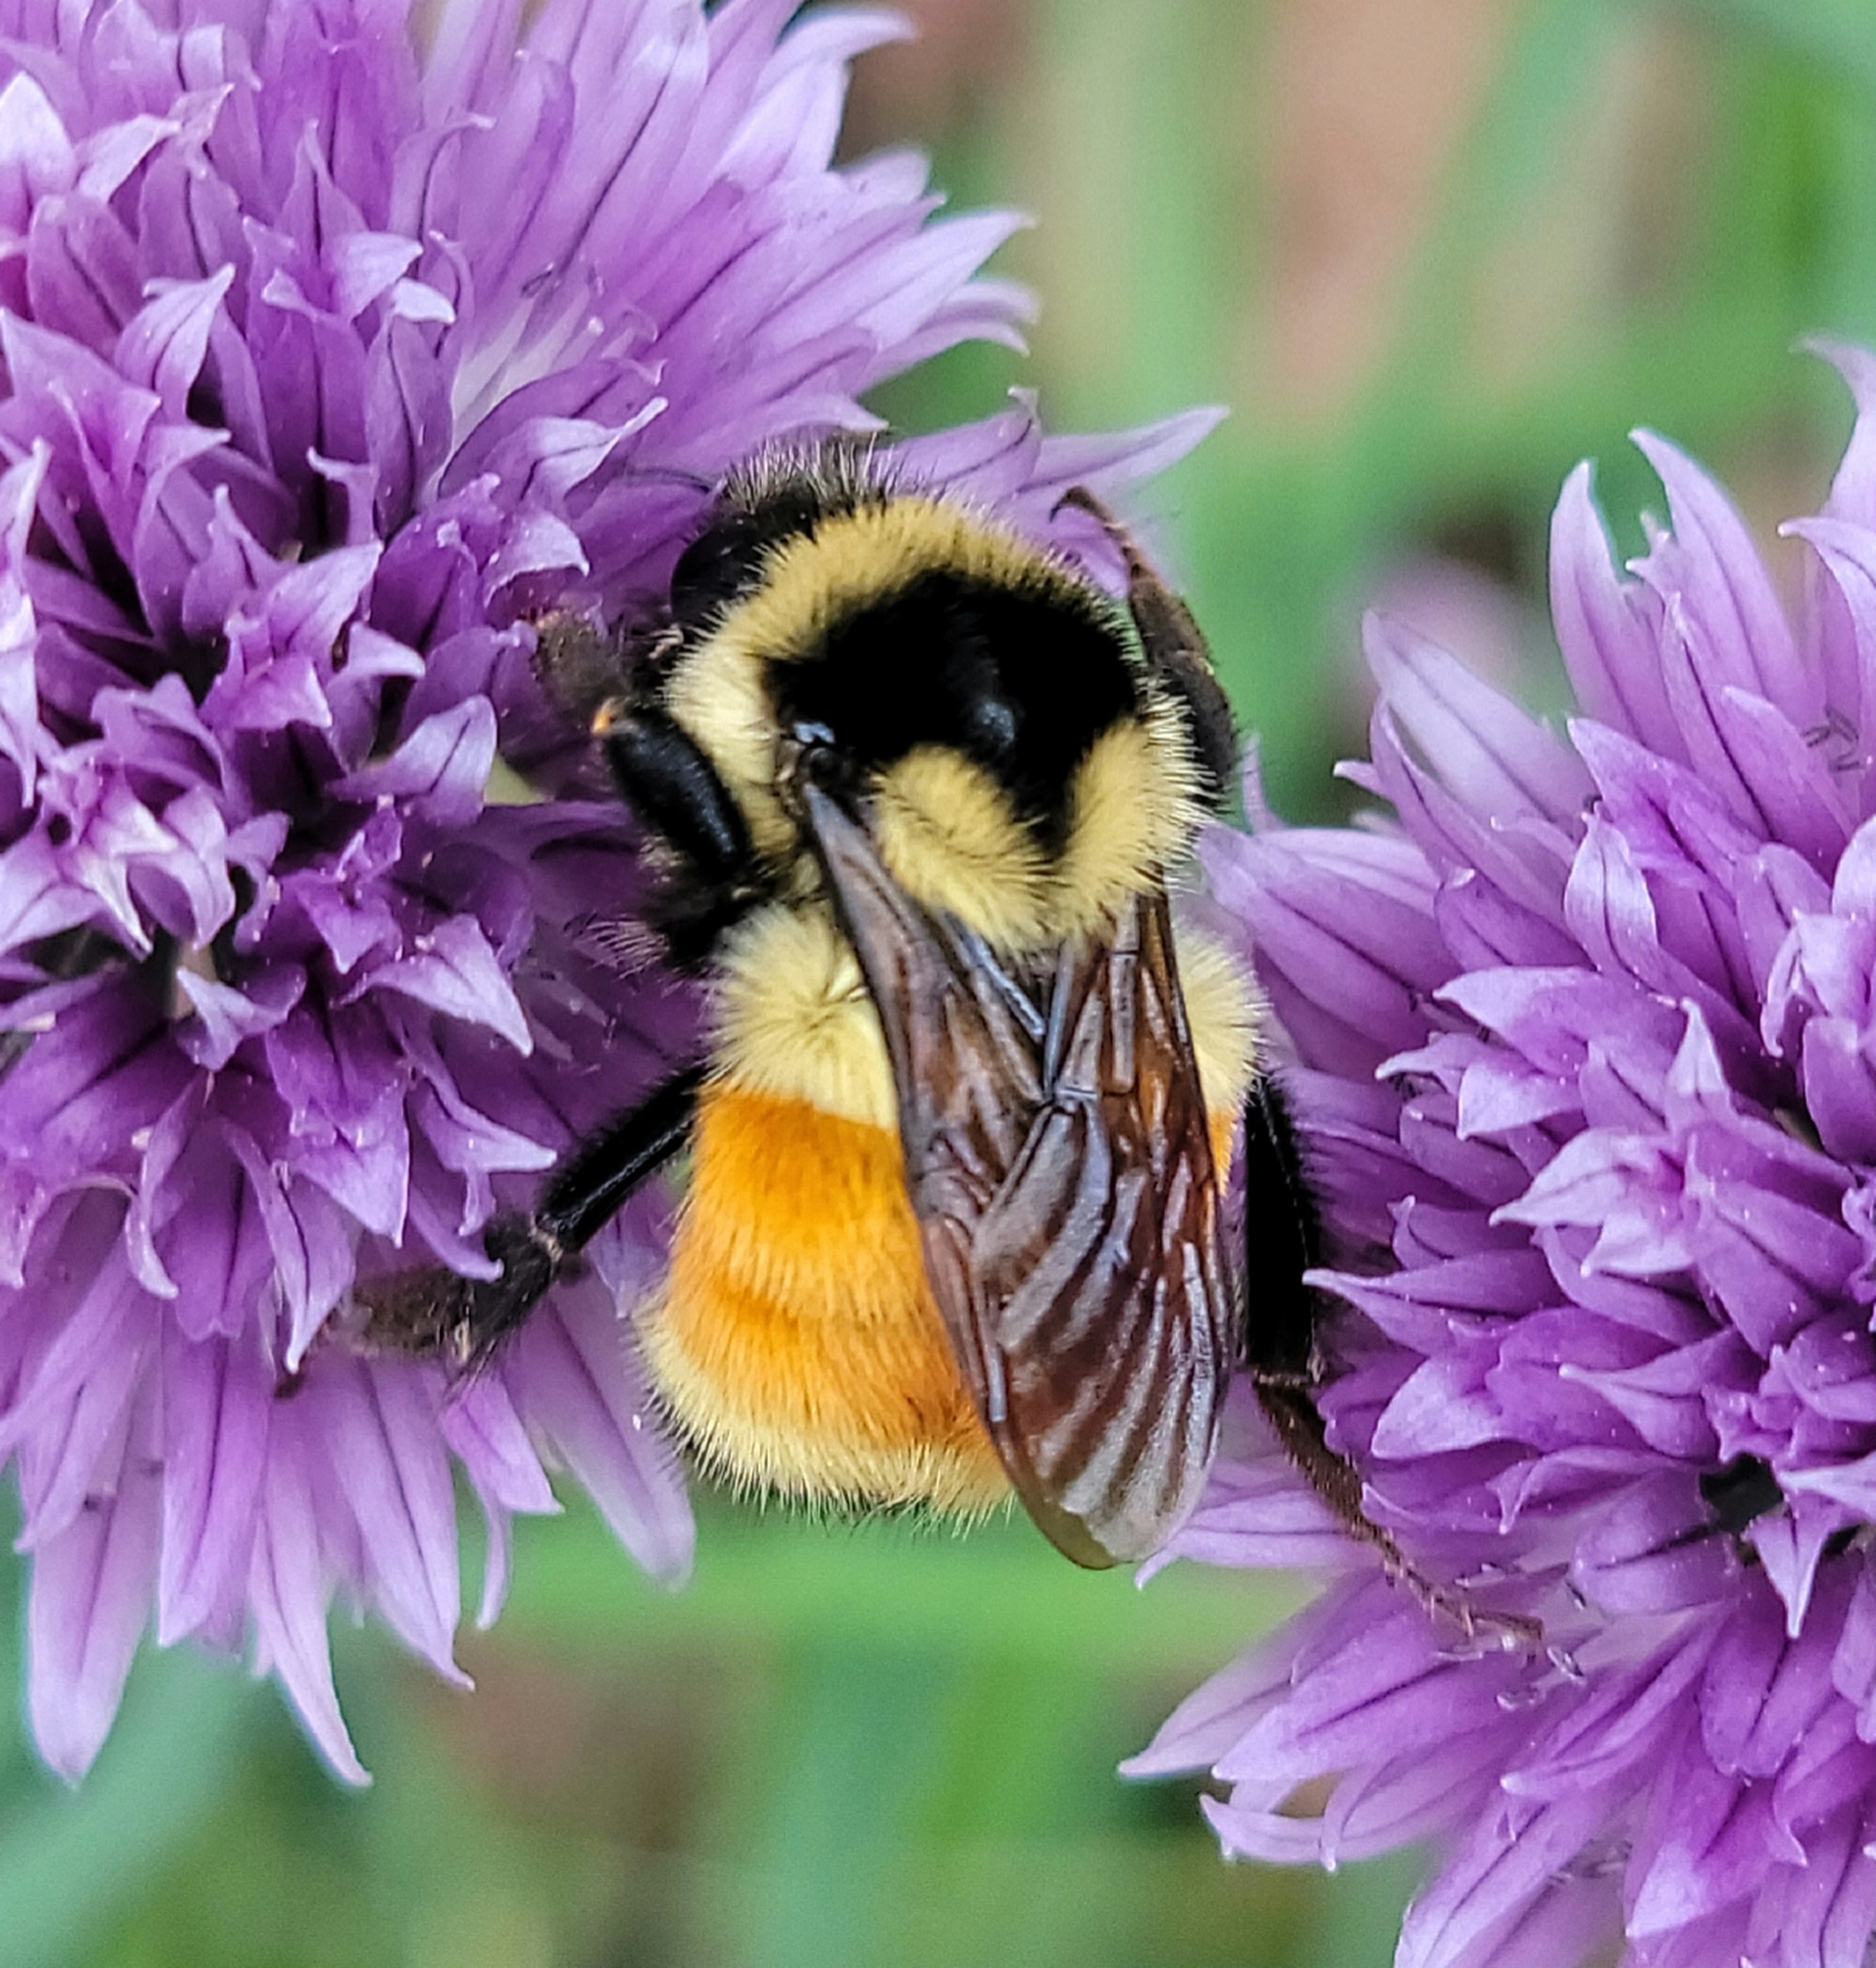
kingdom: Animalia
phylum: Arthropoda
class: Insecta
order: Hymenoptera
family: Apidae
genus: Bombus
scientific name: Bombus ternarius
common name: Tri-colored bumble bee
